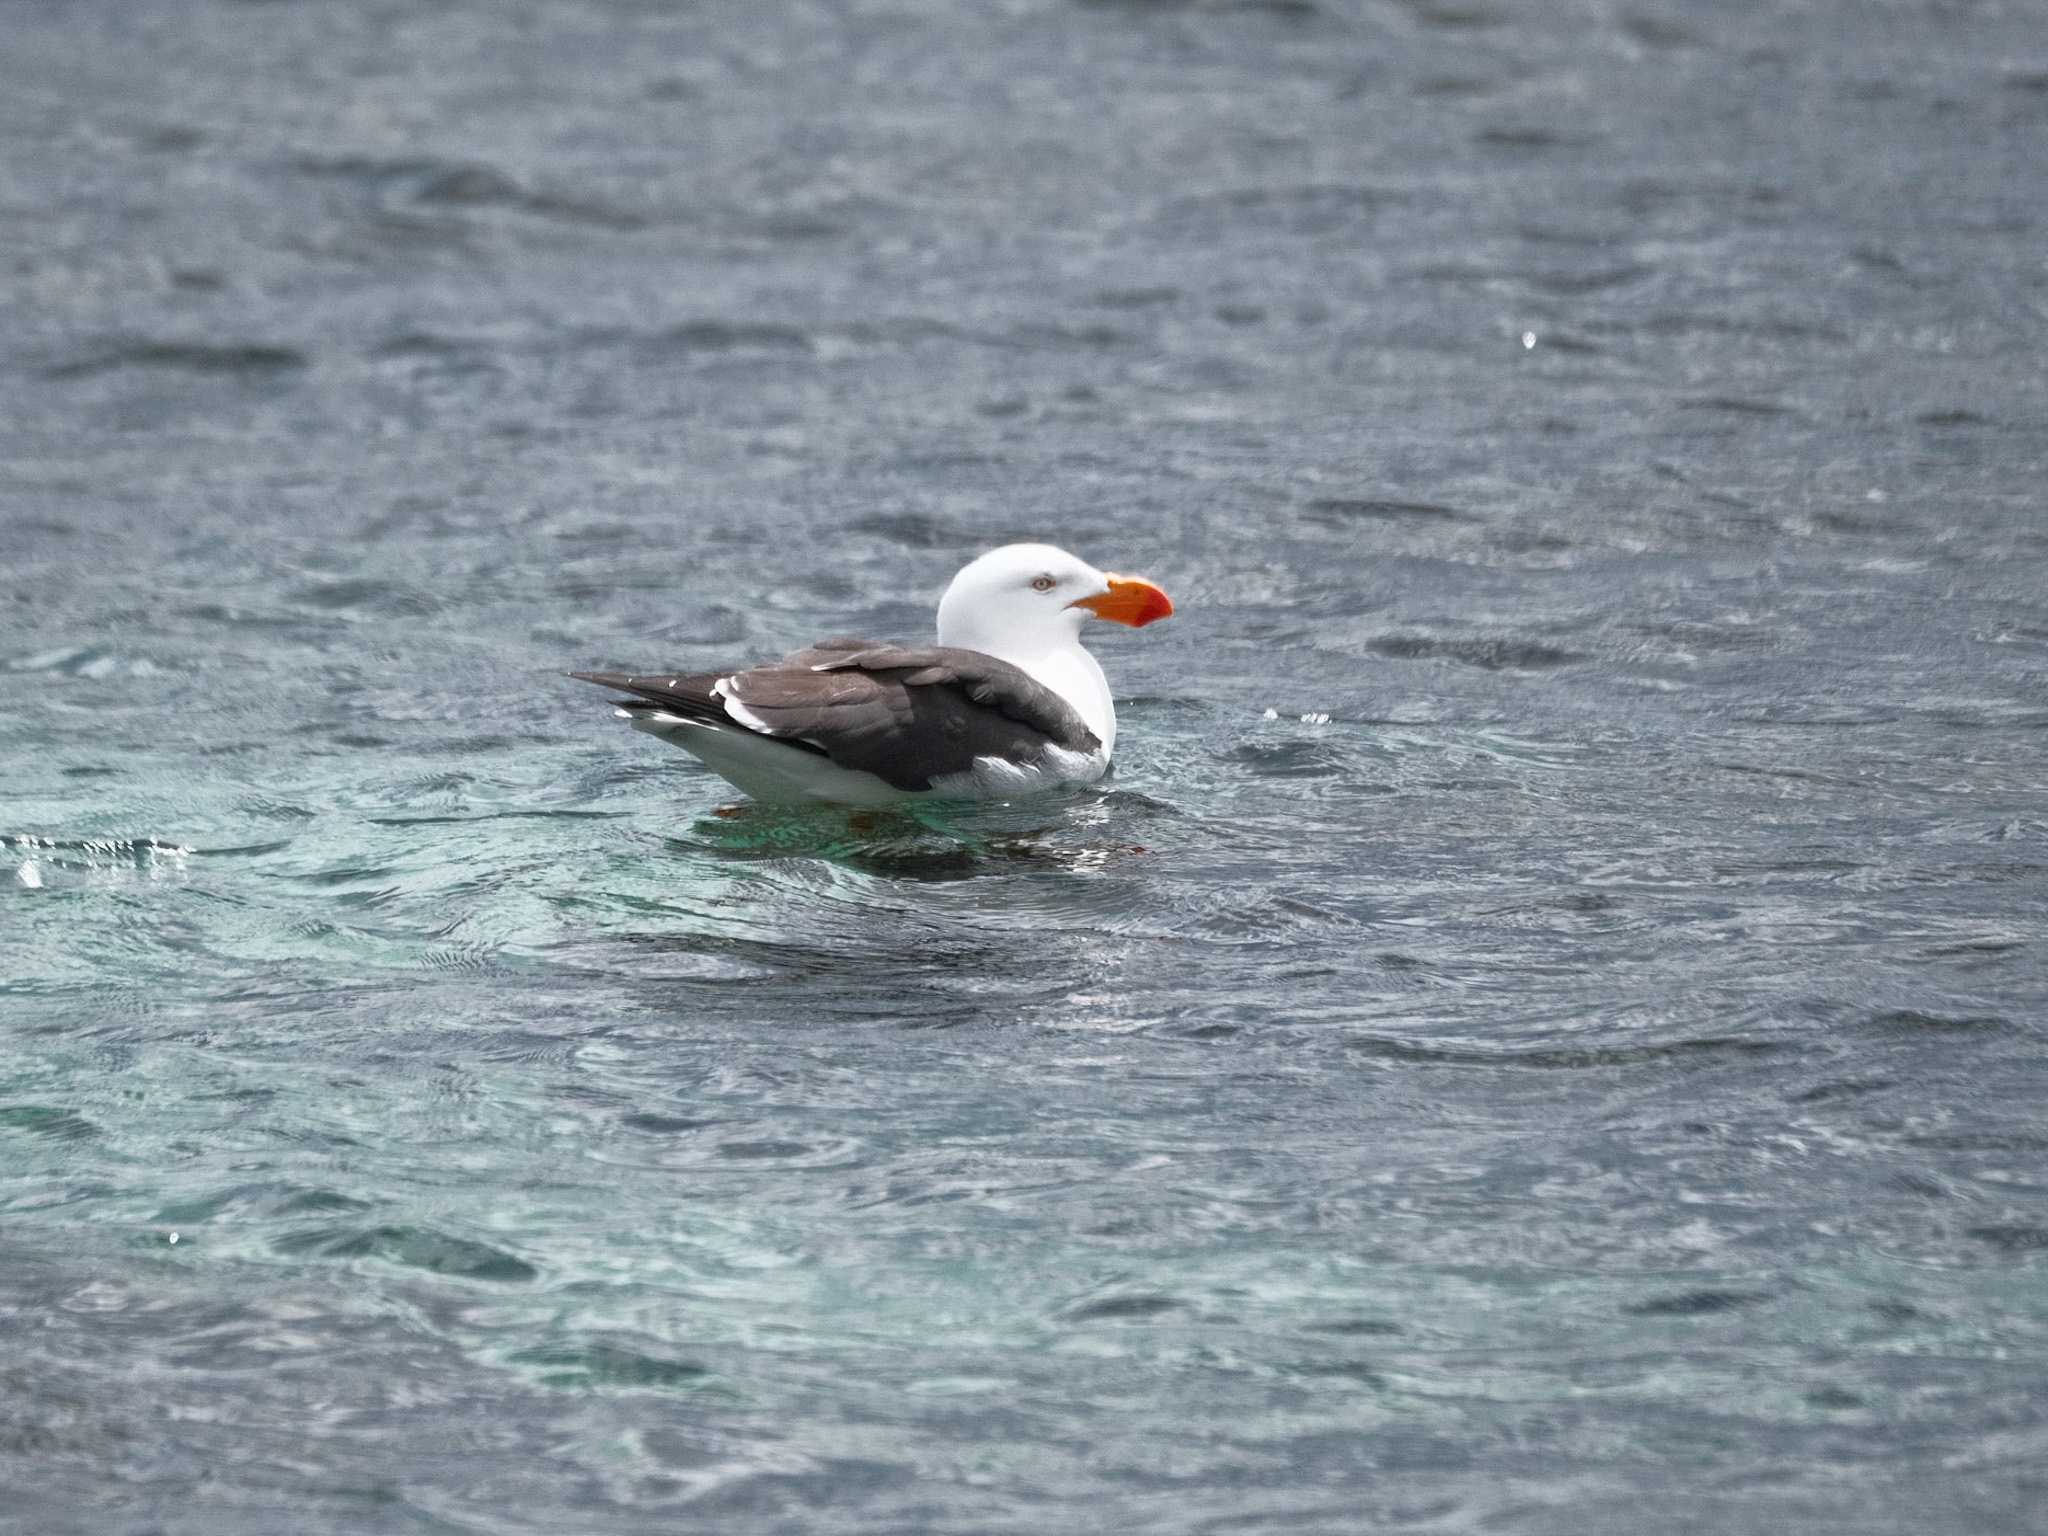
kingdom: Animalia
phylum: Chordata
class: Aves
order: Charadriiformes
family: Laridae
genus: Larus
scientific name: Larus pacificus
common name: Pacific gull
